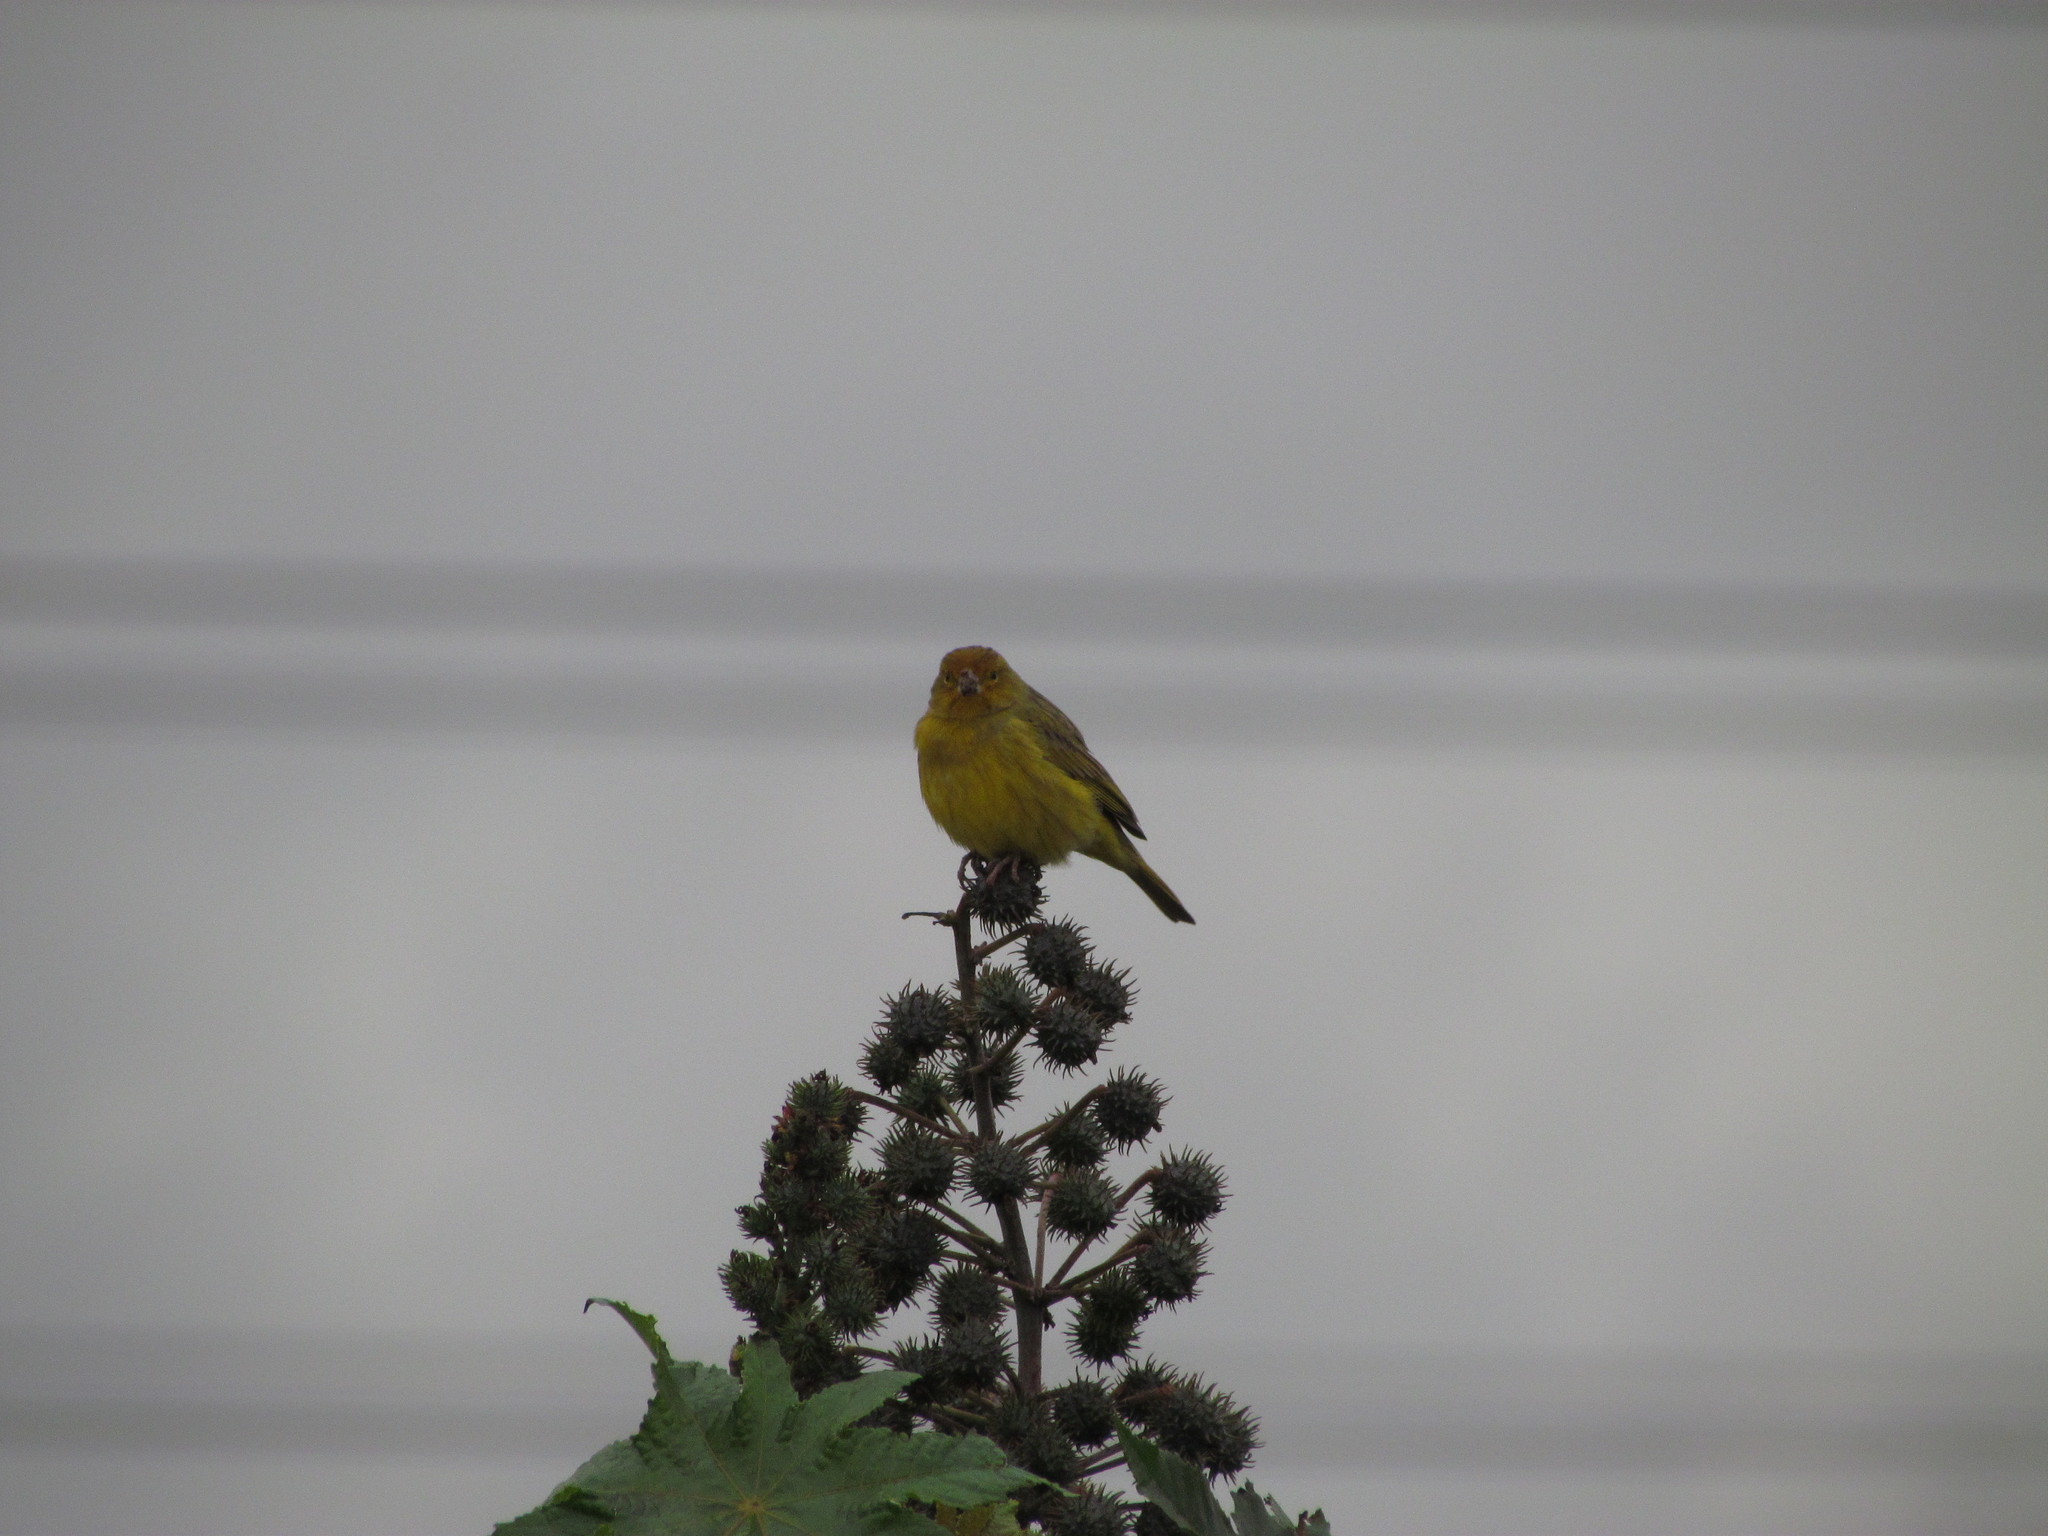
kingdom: Animalia
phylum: Chordata
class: Aves
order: Passeriformes
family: Thraupidae
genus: Sicalis
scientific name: Sicalis flaveola
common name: Saffron finch
